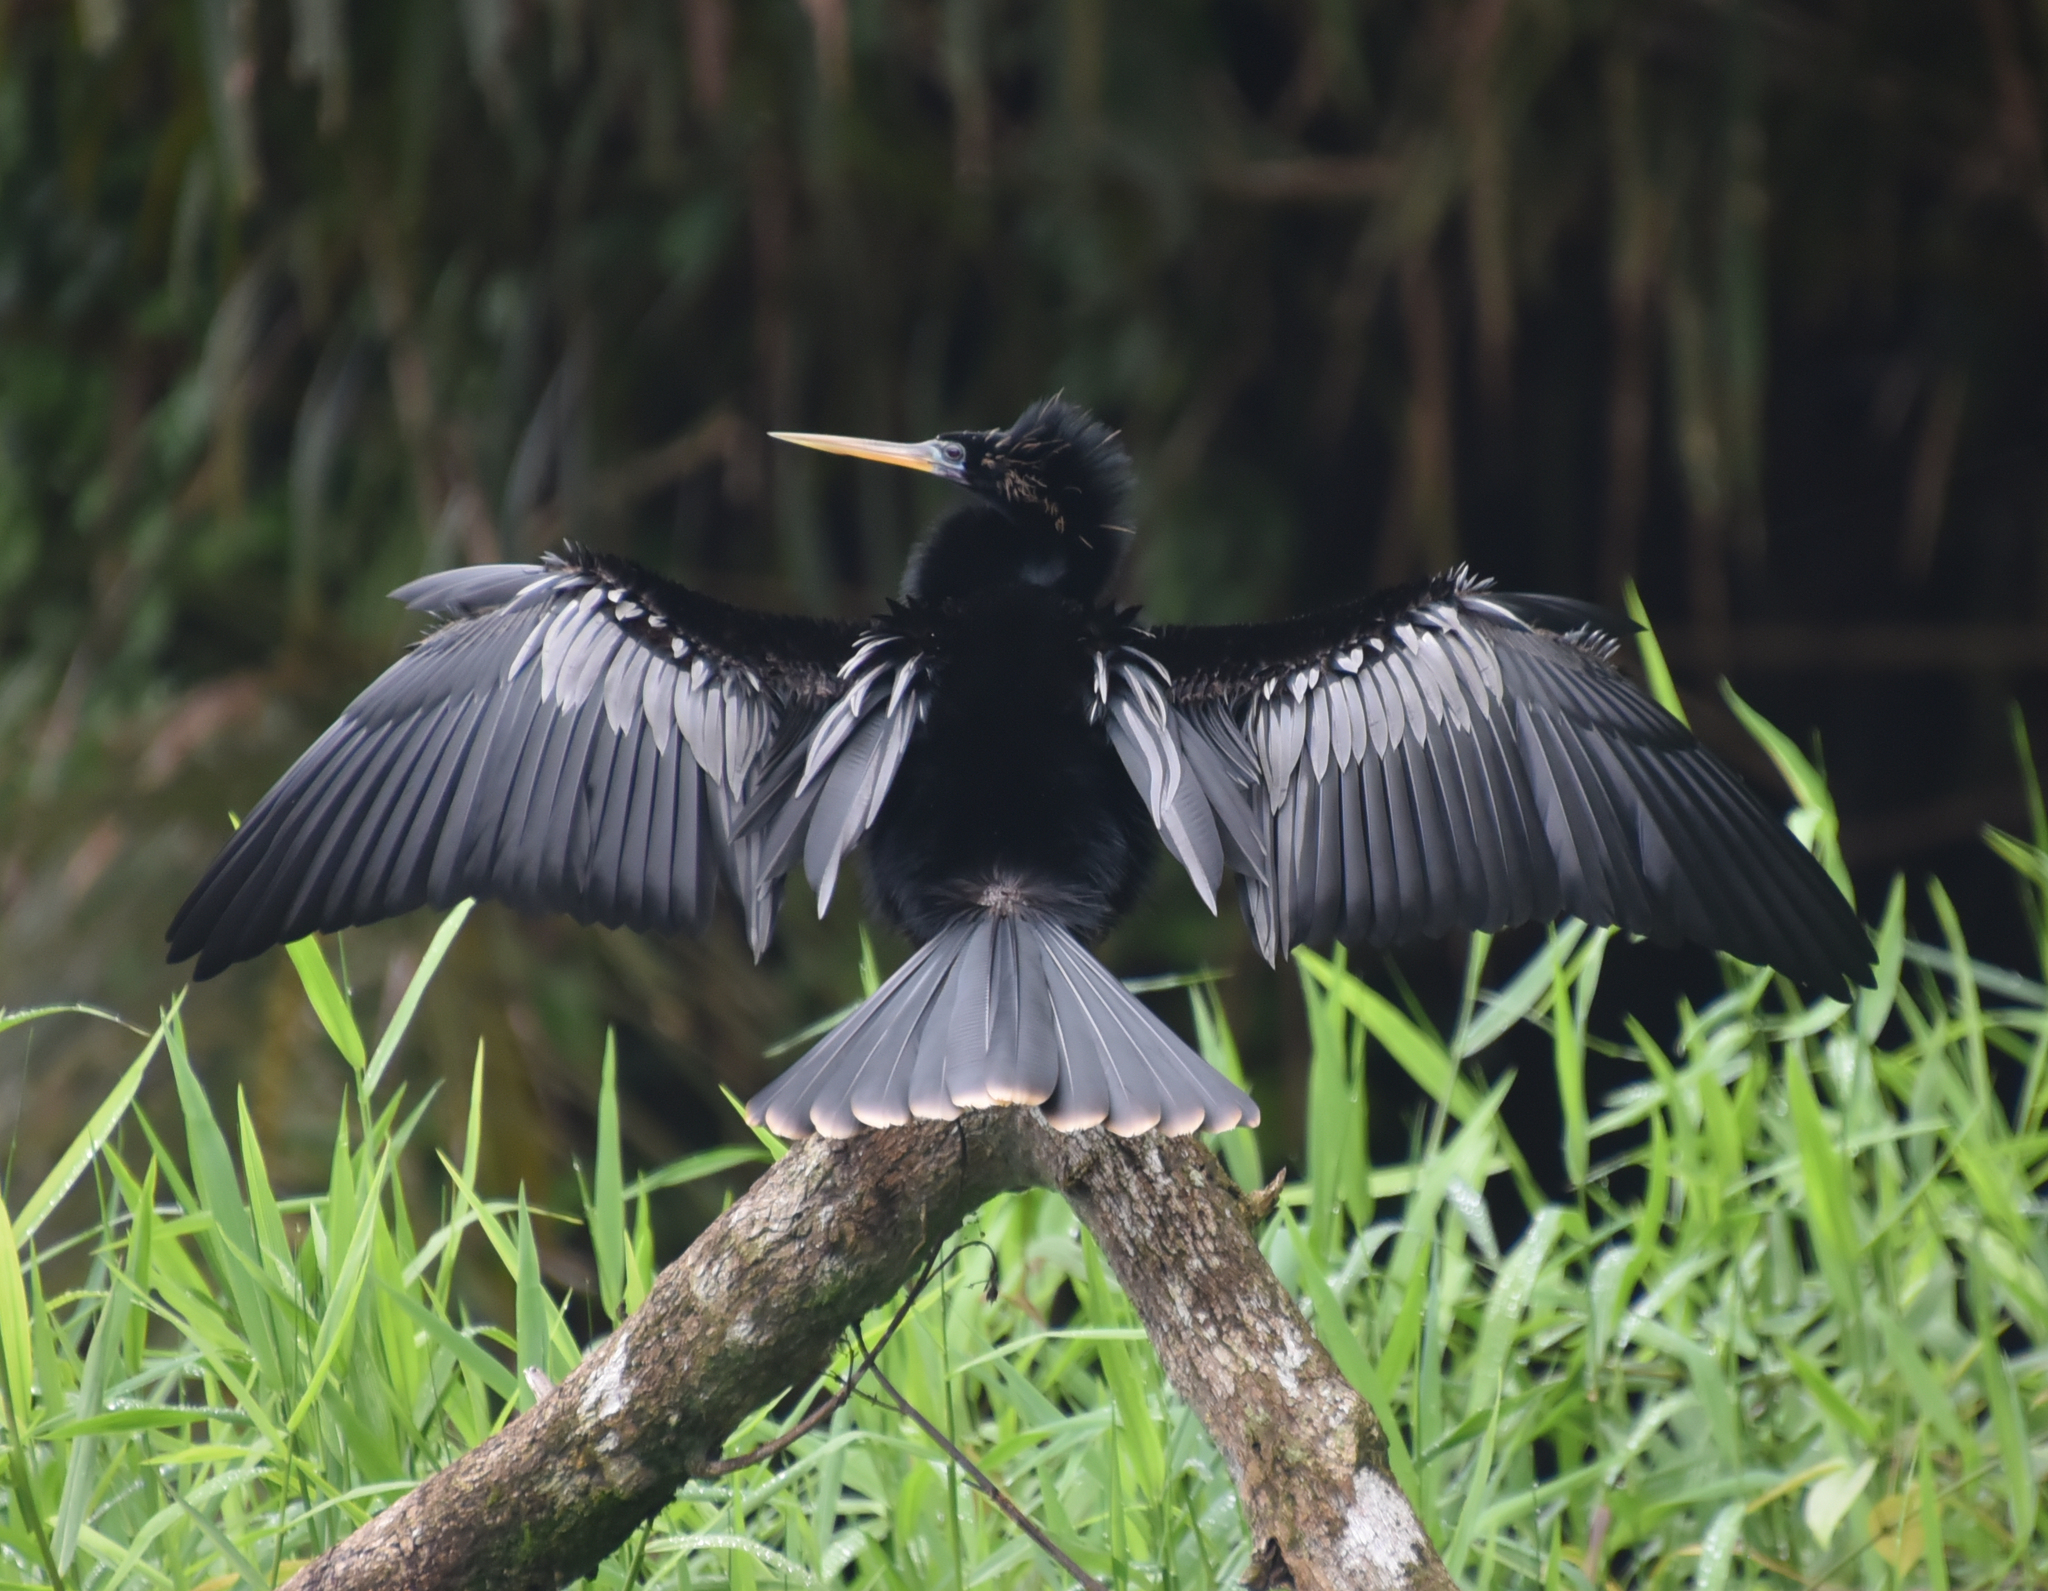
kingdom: Animalia
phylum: Chordata
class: Aves
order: Suliformes
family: Anhingidae
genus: Anhinga
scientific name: Anhinga anhinga
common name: Anhinga
